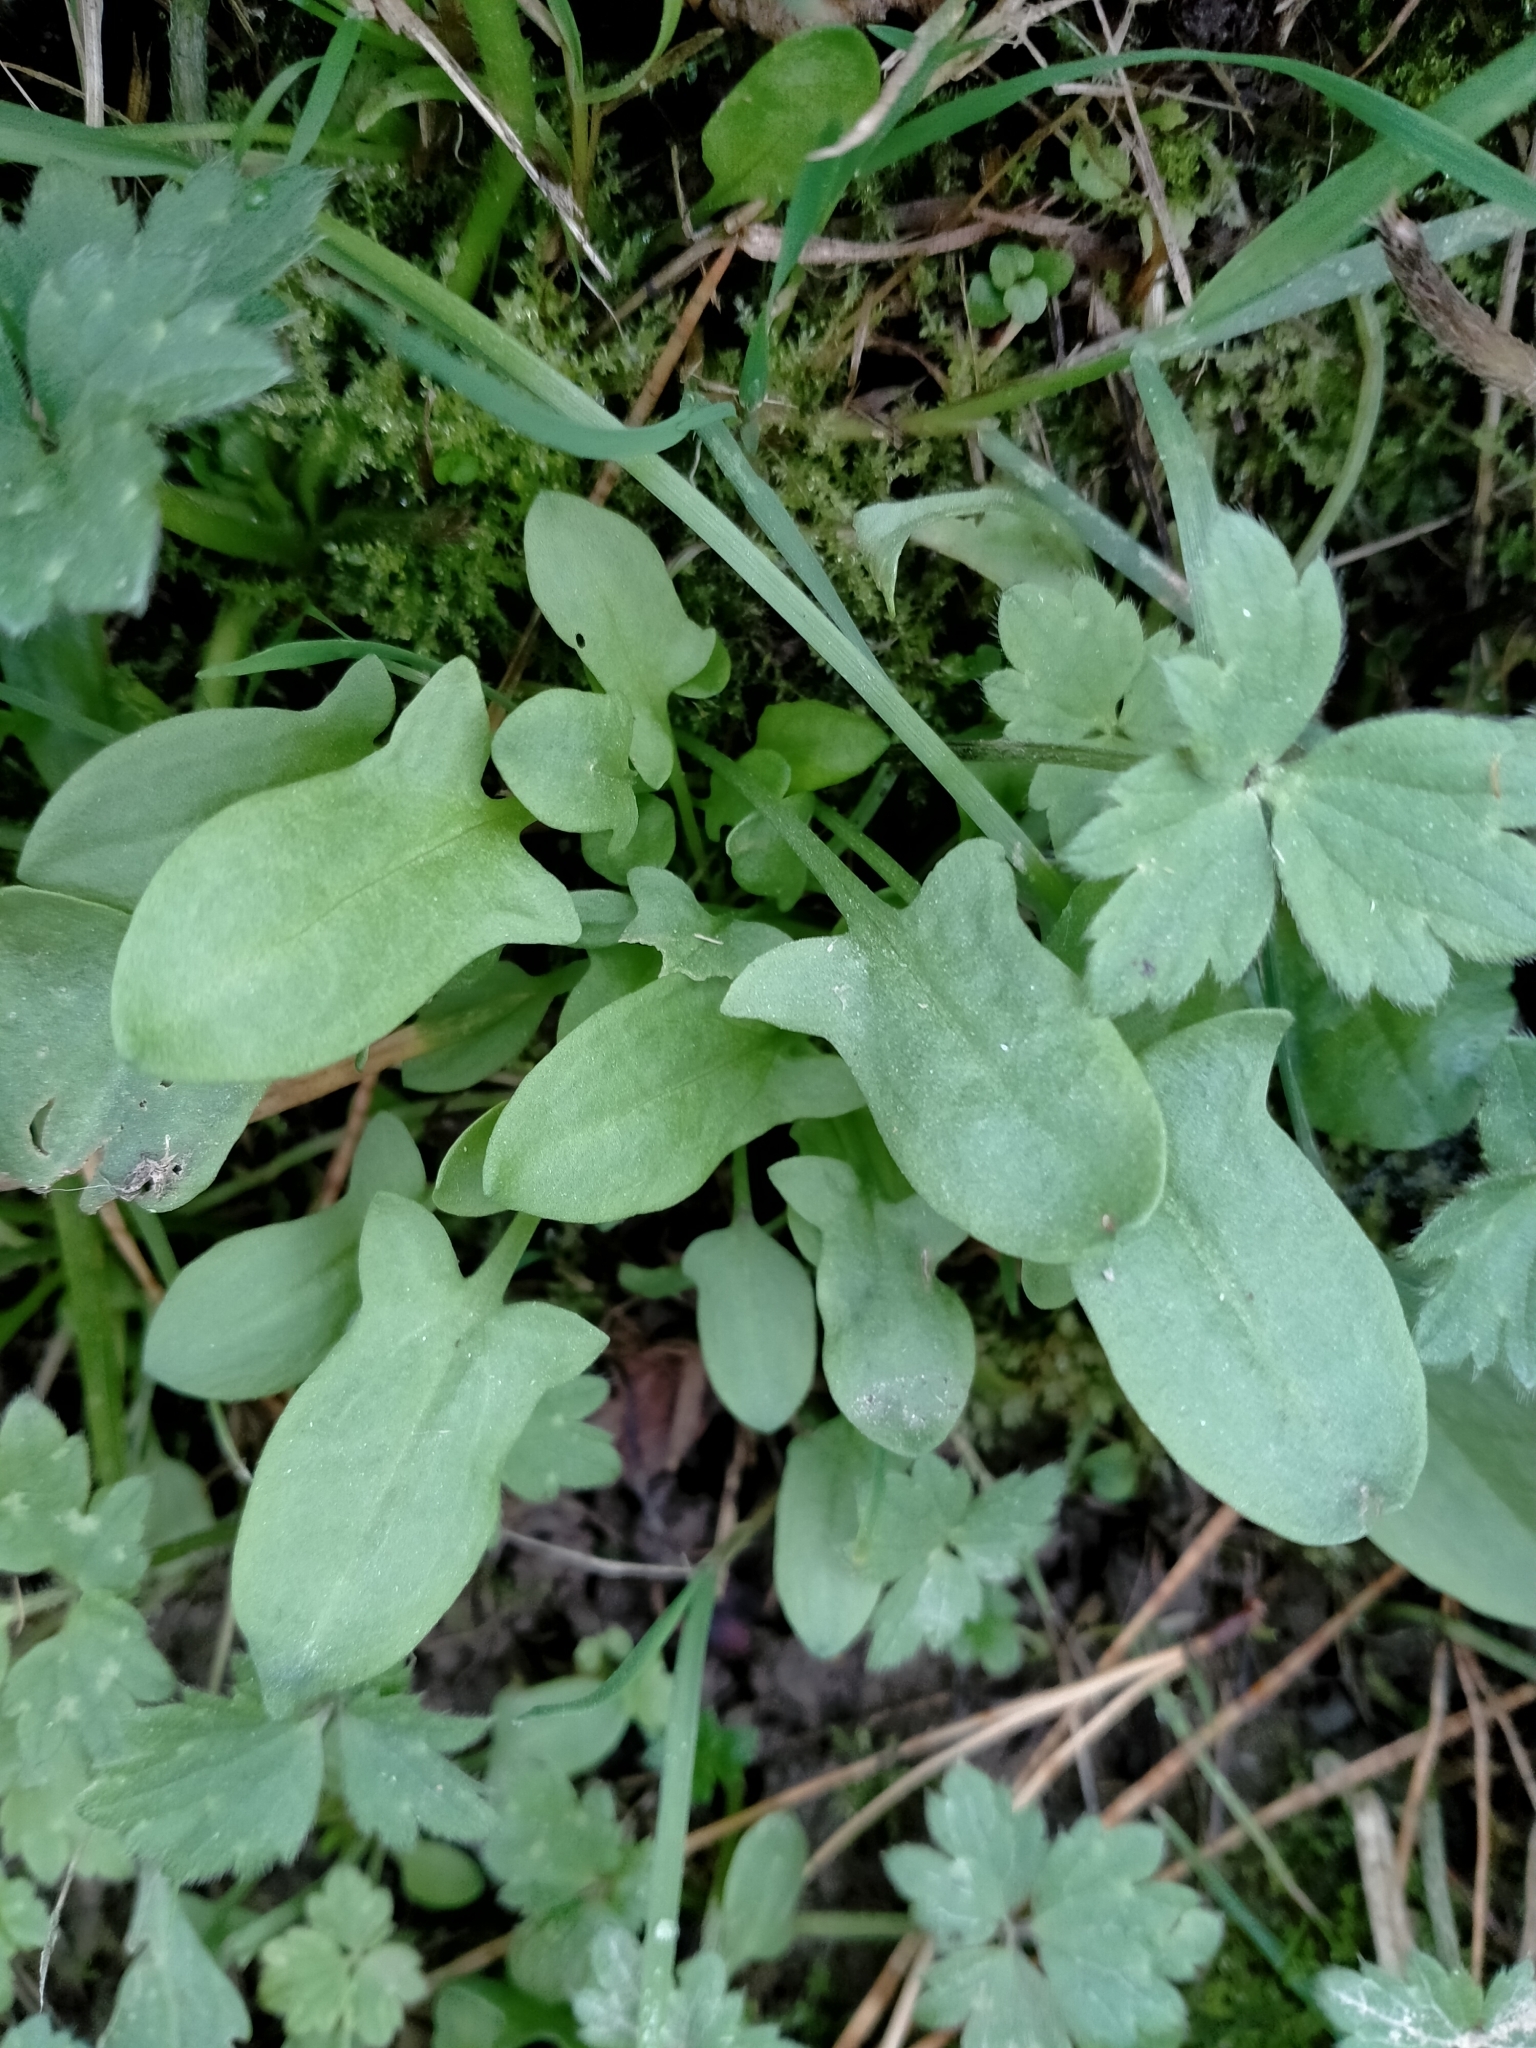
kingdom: Plantae
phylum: Tracheophyta
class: Magnoliopsida
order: Caryophyllales
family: Polygonaceae
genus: Rumex
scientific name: Rumex acetosella
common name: Common sheep sorrel
